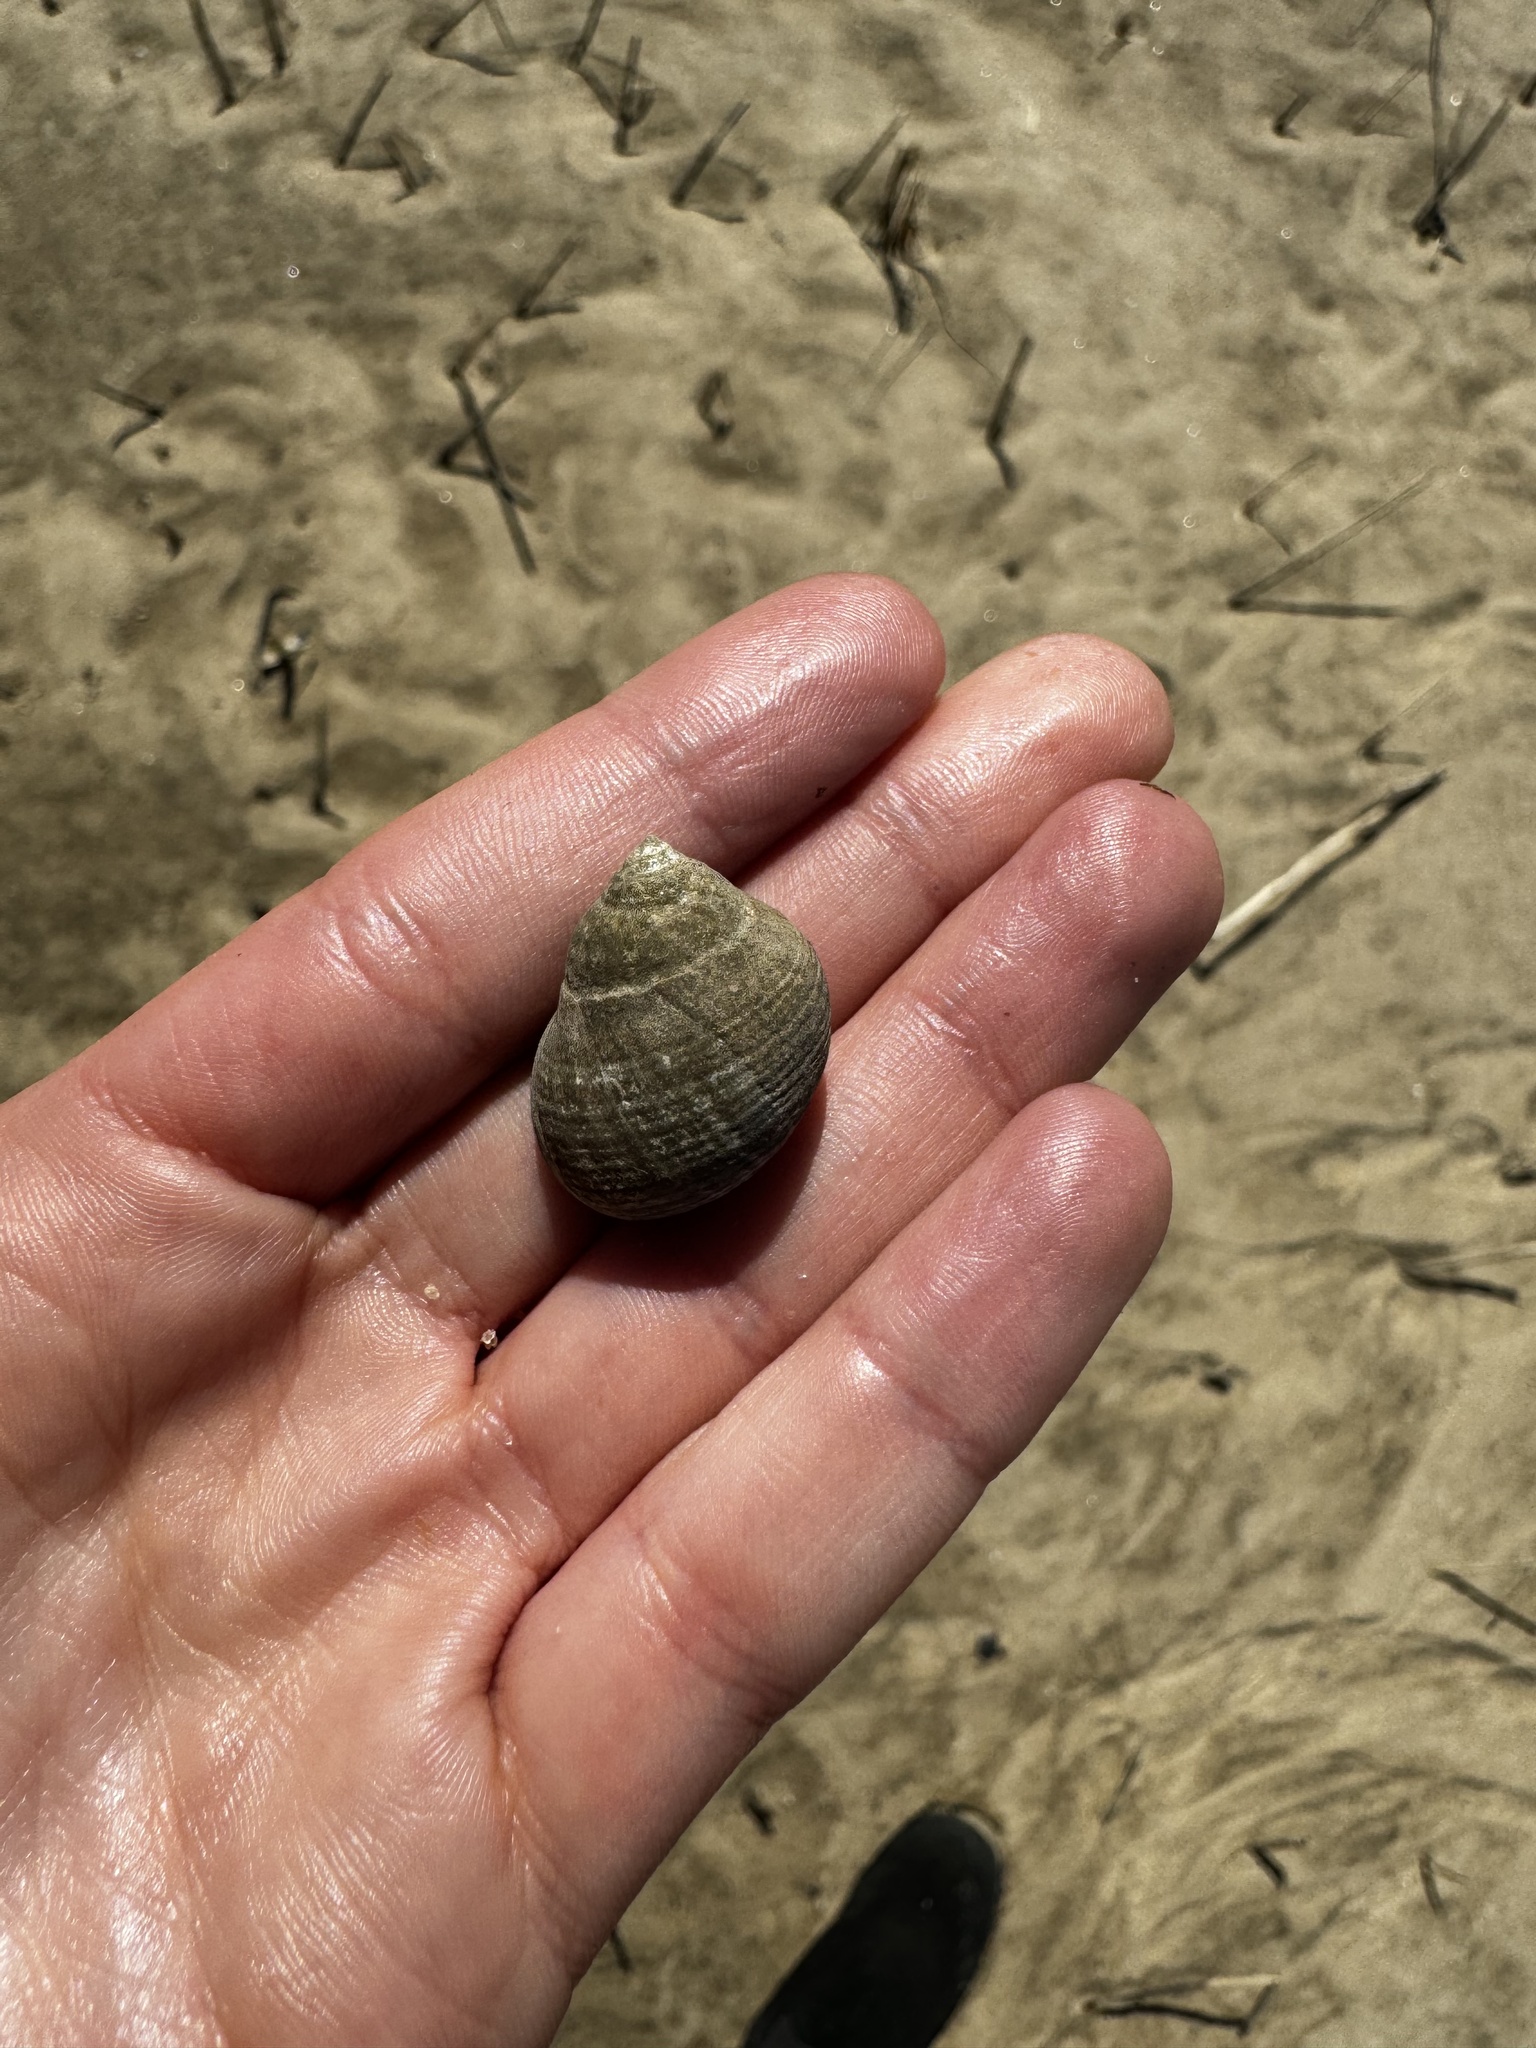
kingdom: Animalia
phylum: Mollusca
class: Gastropoda
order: Littorinimorpha
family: Littorinidae
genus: Littorina
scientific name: Littorina littorea
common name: Common periwinkle
